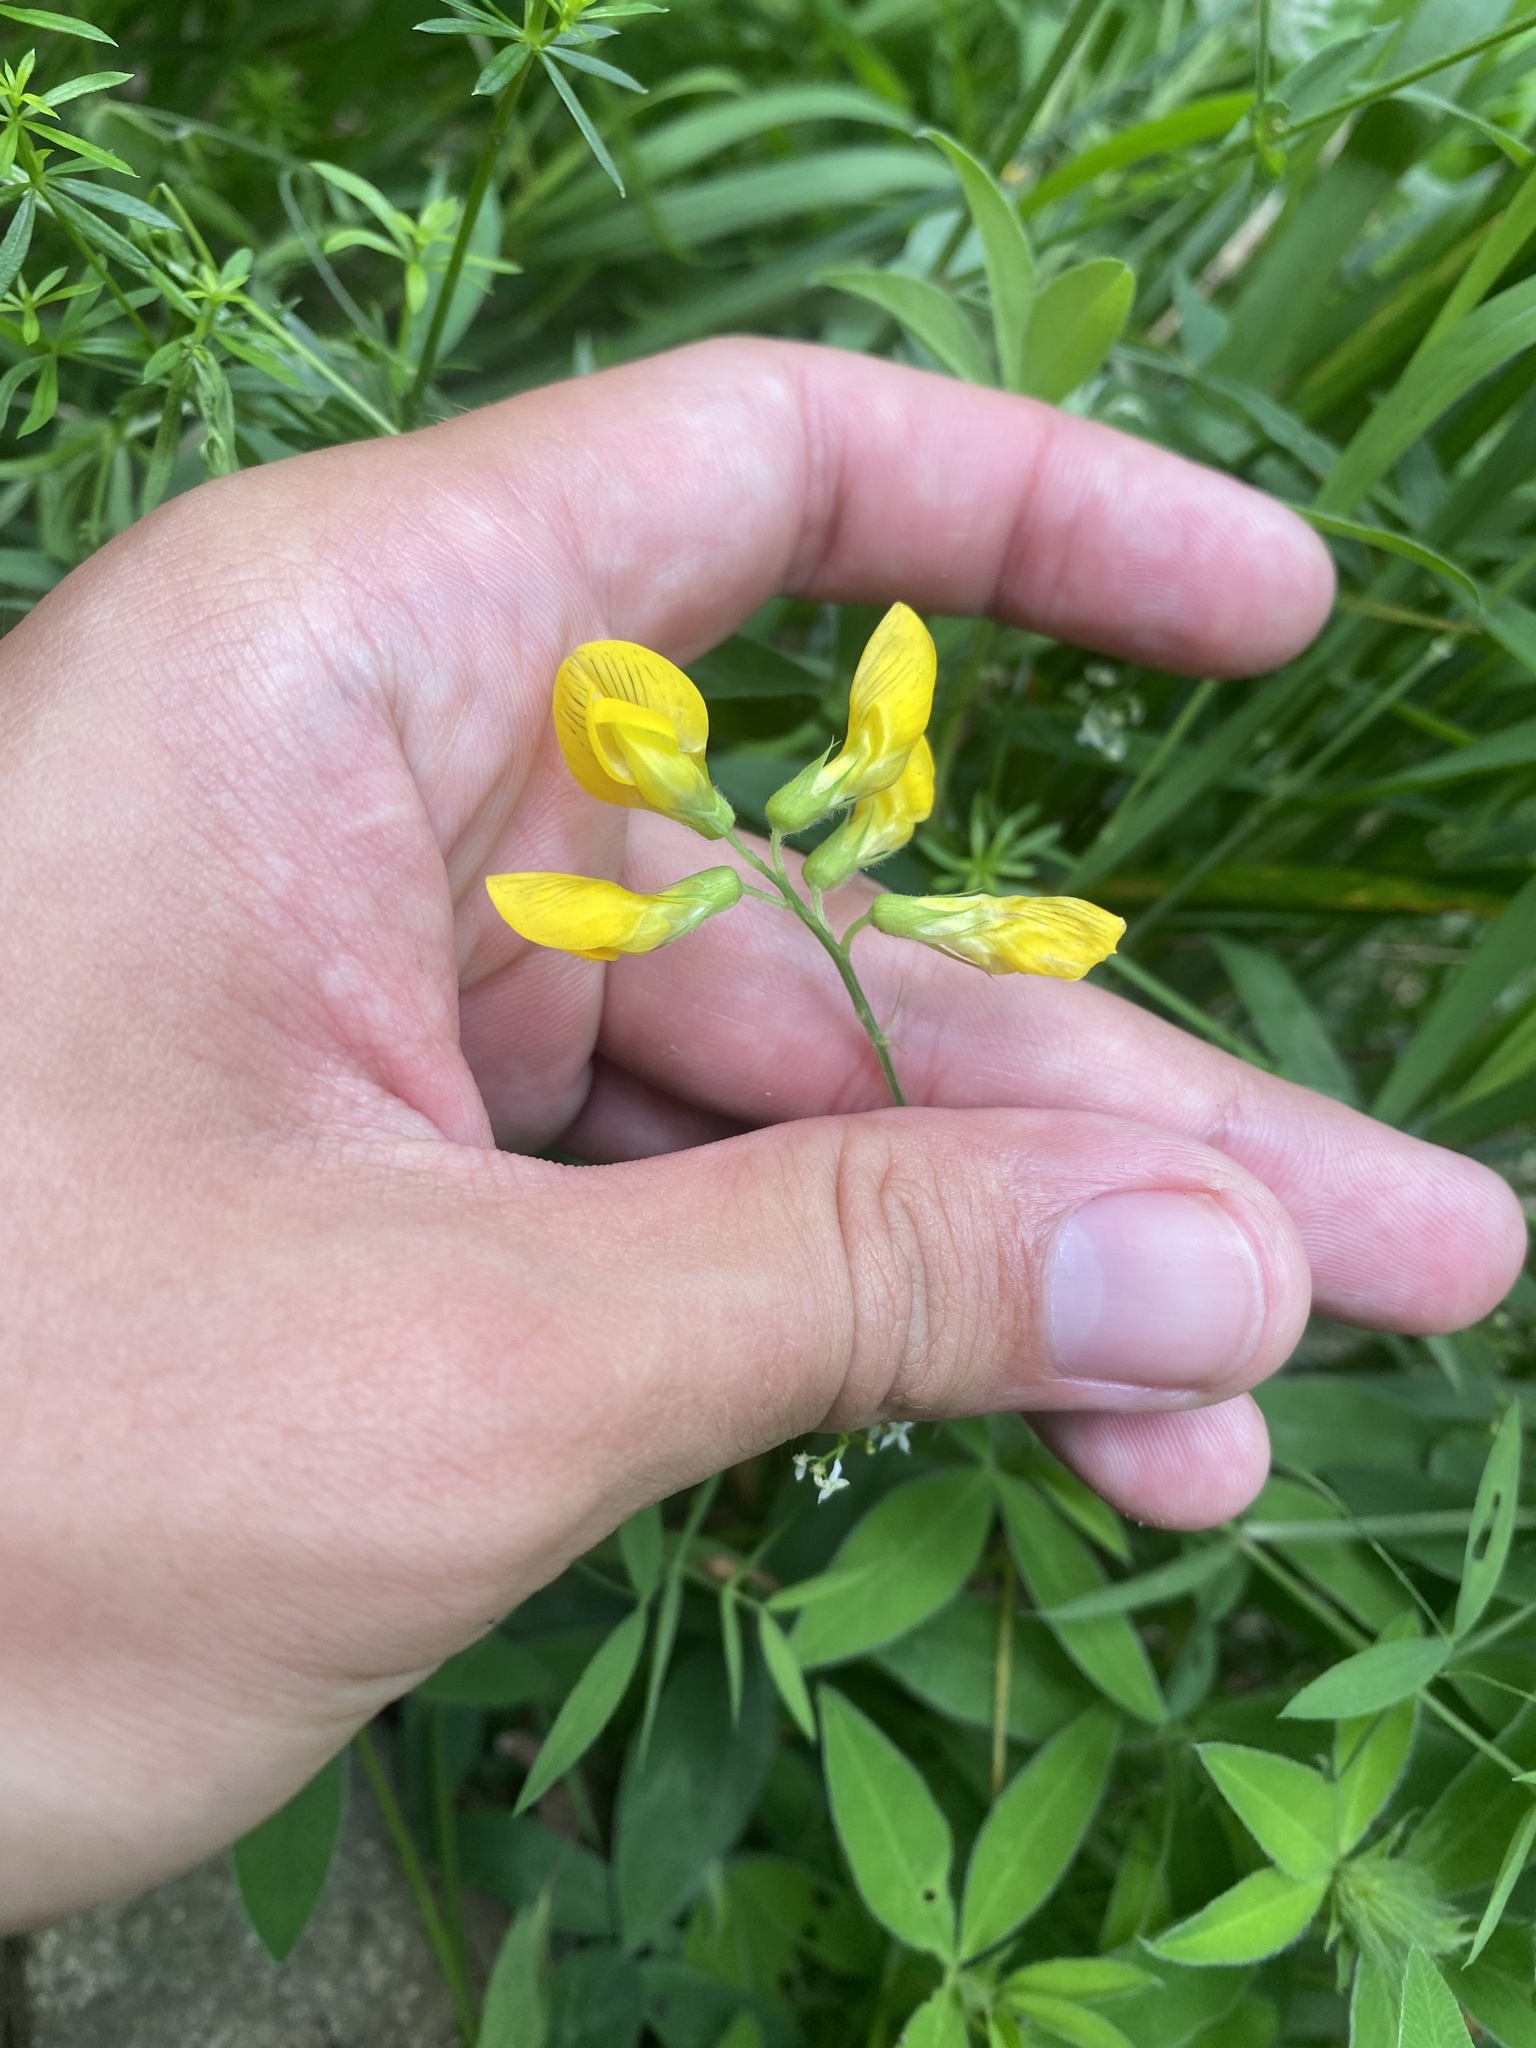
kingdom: Plantae
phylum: Tracheophyta
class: Magnoliopsida
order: Fabales
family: Fabaceae
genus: Lathyrus
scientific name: Lathyrus pratensis
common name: Meadow vetchling
